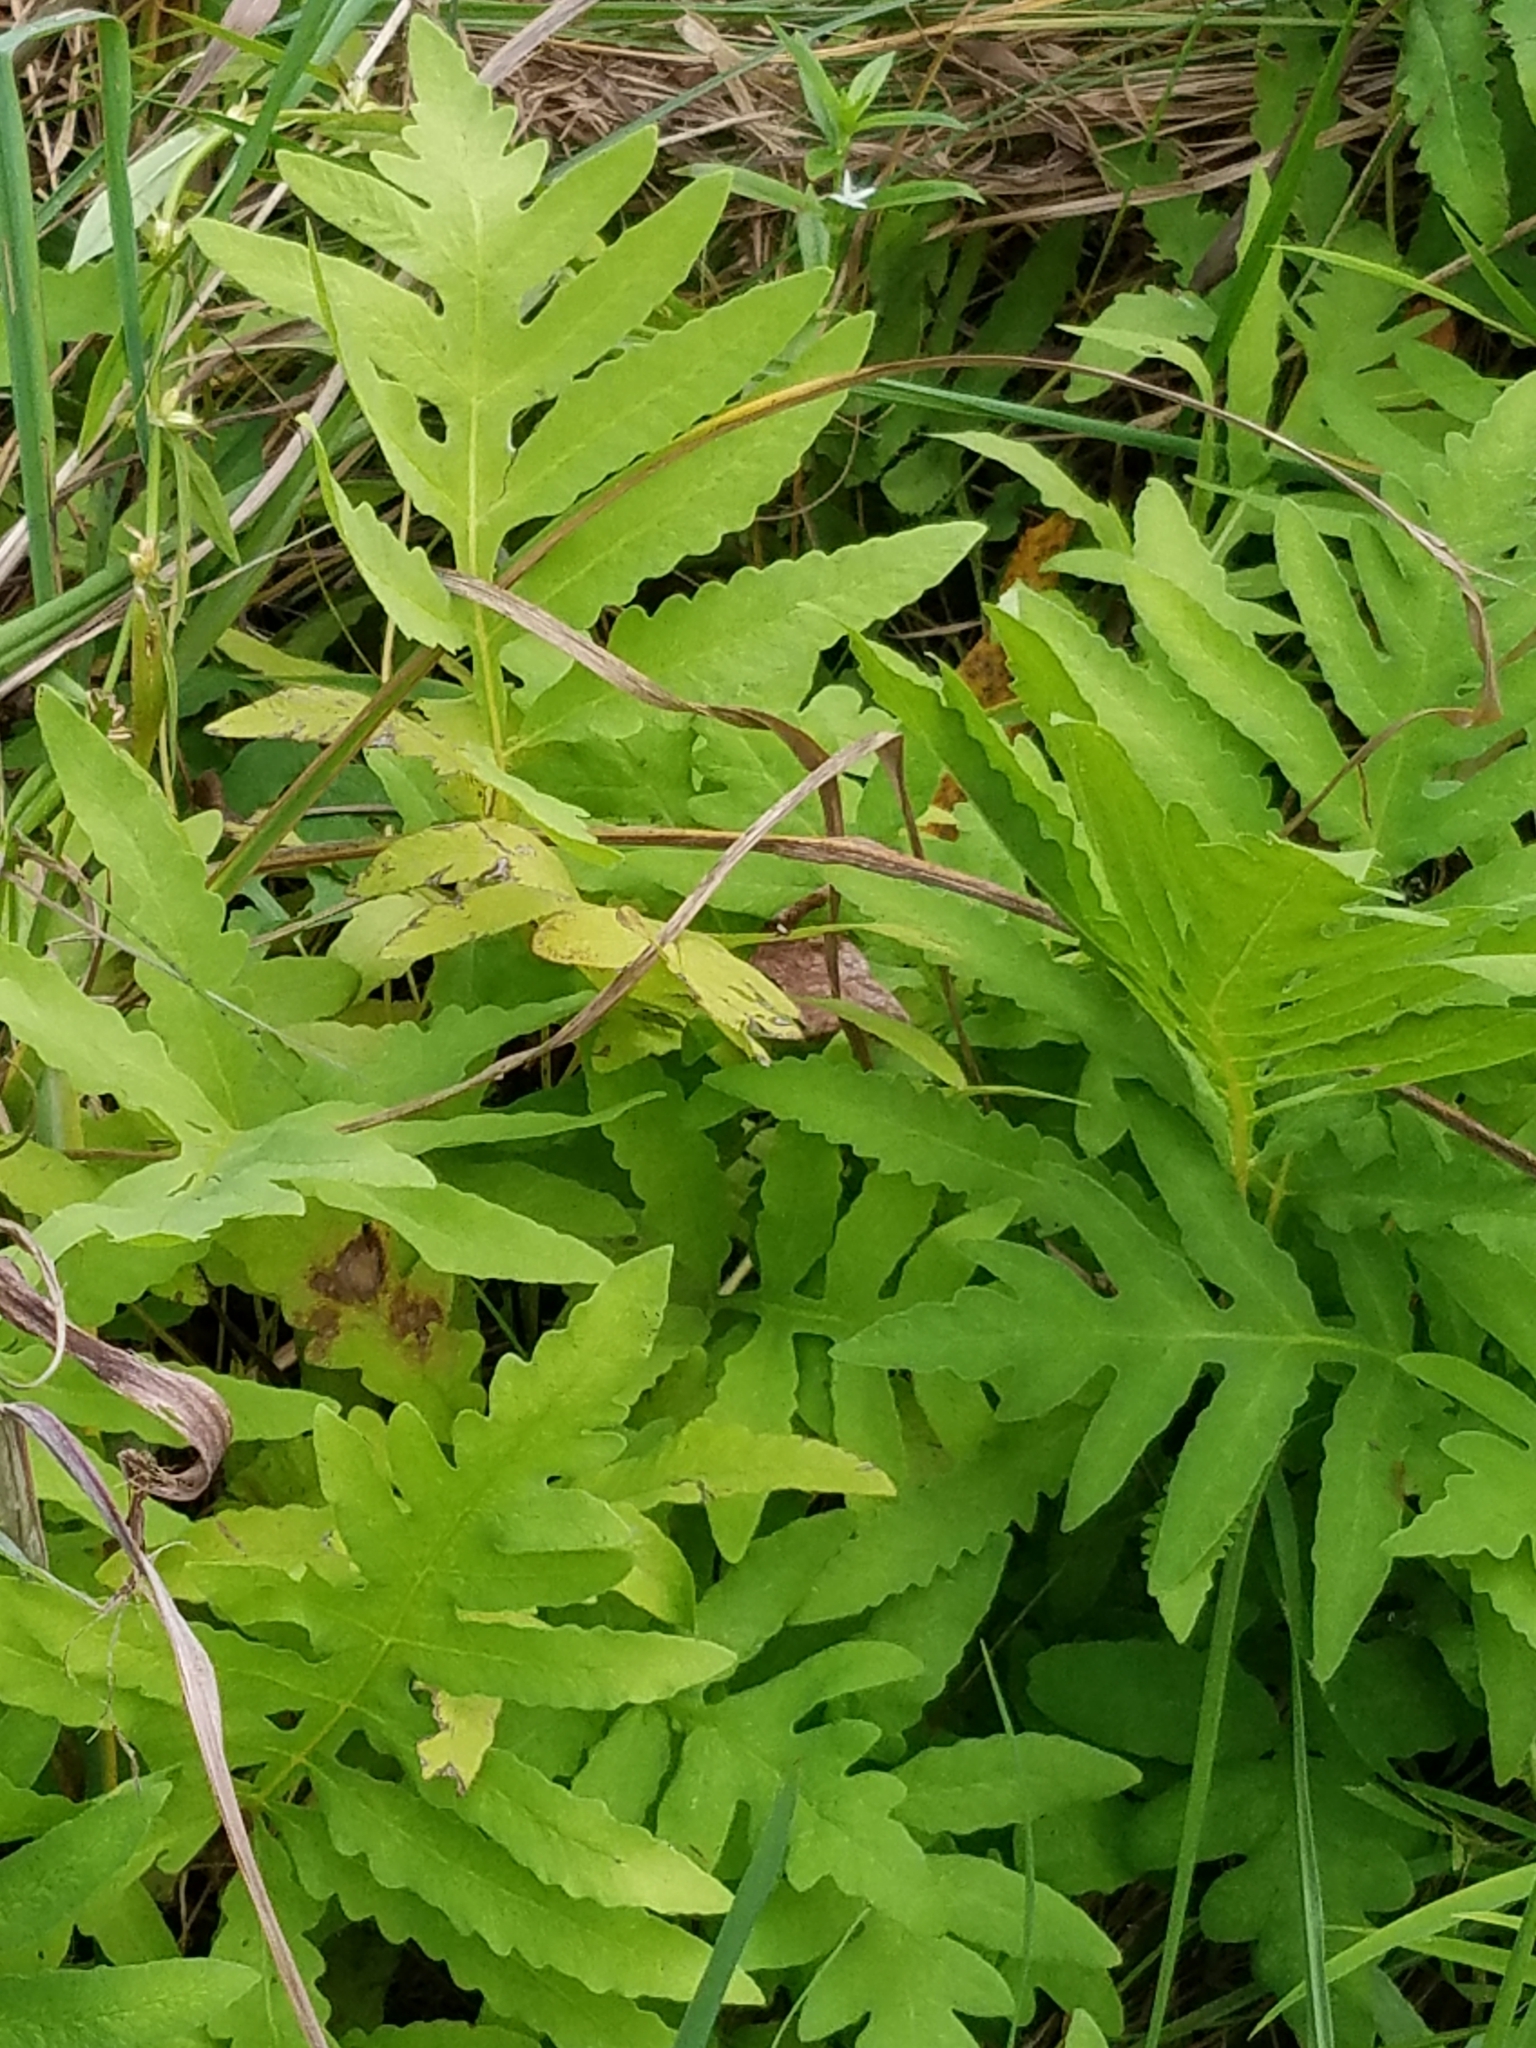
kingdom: Plantae
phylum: Tracheophyta
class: Polypodiopsida
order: Polypodiales
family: Onocleaceae
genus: Onoclea
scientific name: Onoclea sensibilis
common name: Sensitive fern
